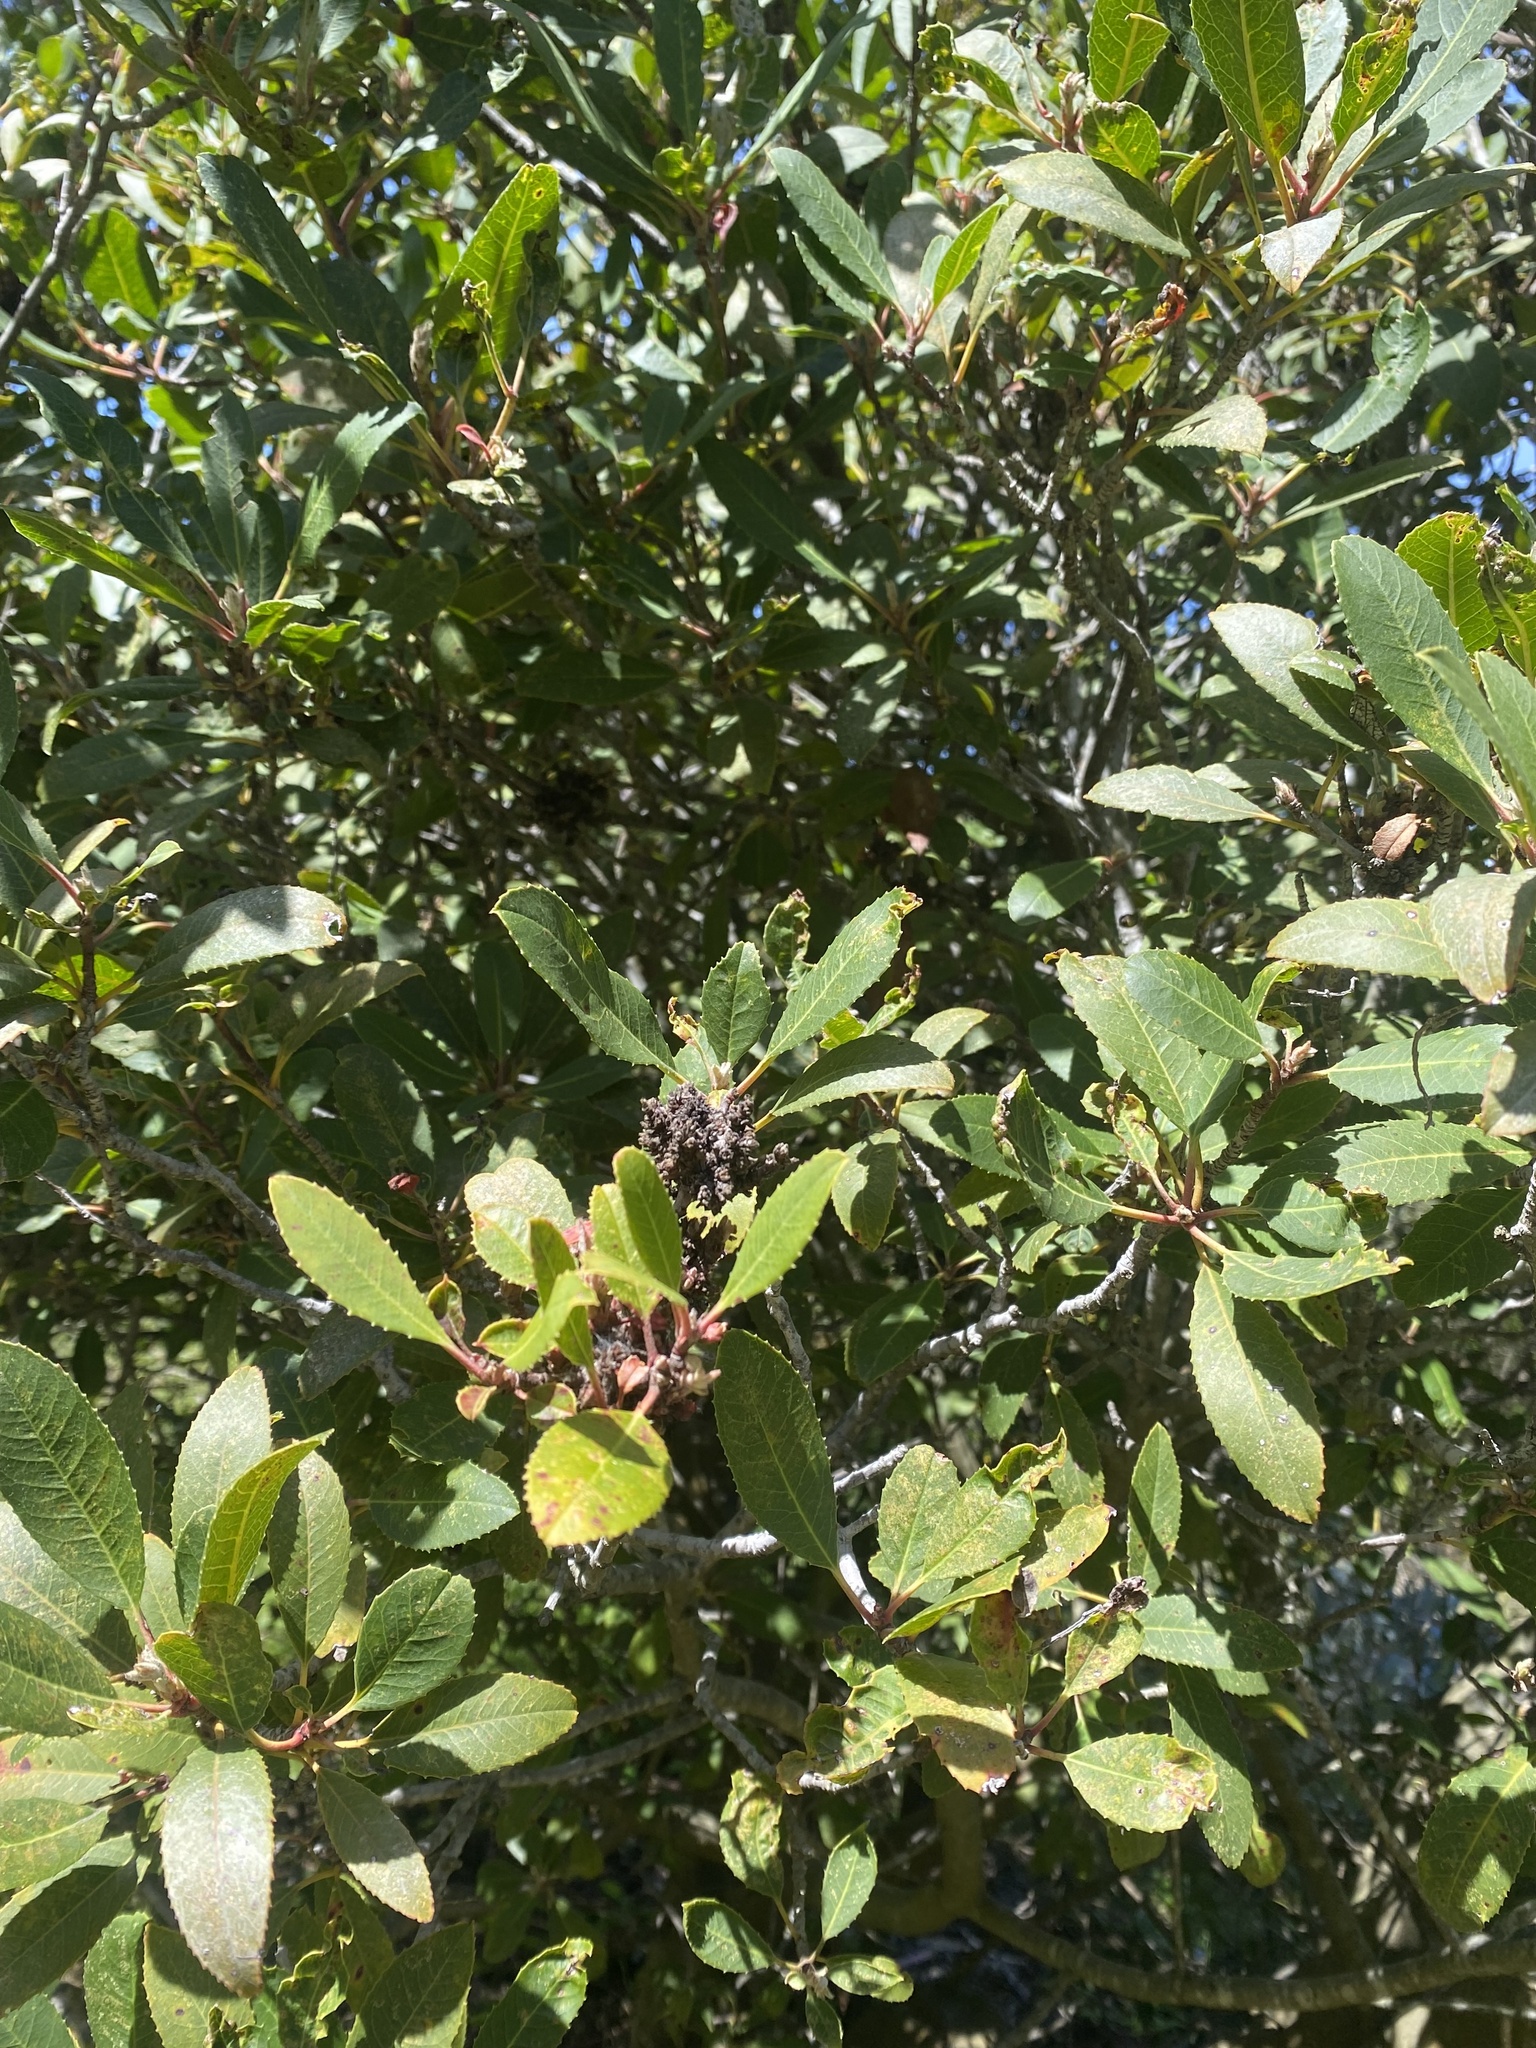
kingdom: Plantae
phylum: Tracheophyta
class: Magnoliopsida
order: Rosales
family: Rosaceae
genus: Heteromeles
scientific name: Heteromeles arbutifolia
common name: California-holly
